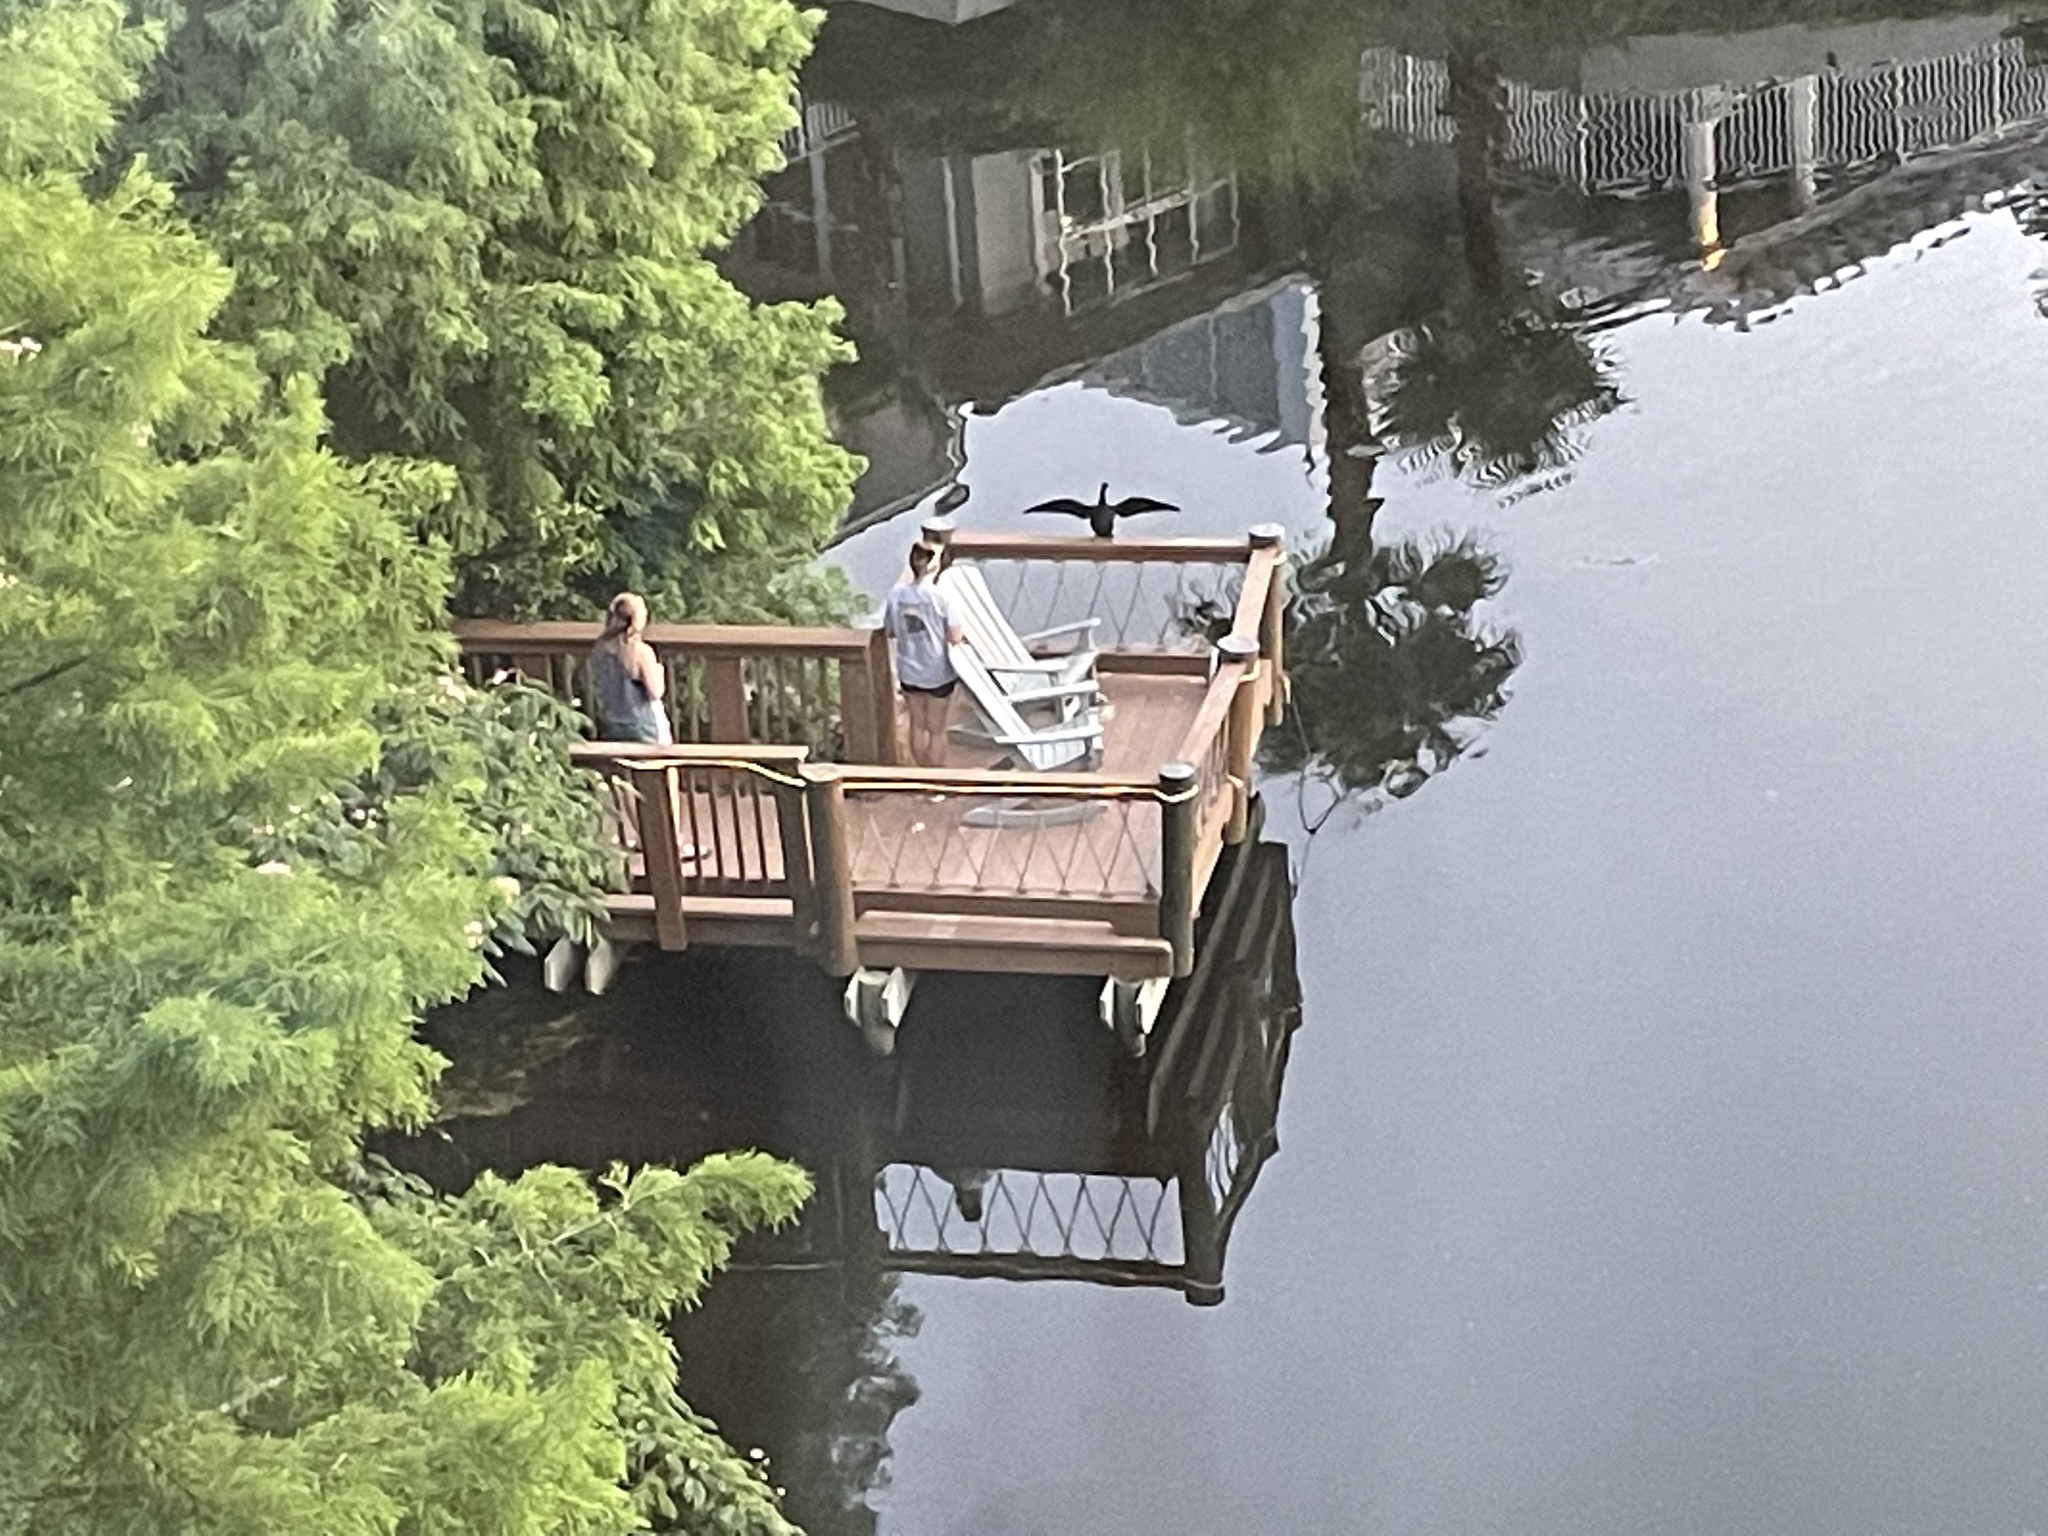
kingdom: Animalia
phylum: Chordata
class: Aves
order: Suliformes
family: Anhingidae
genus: Anhinga
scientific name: Anhinga anhinga
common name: Anhinga
